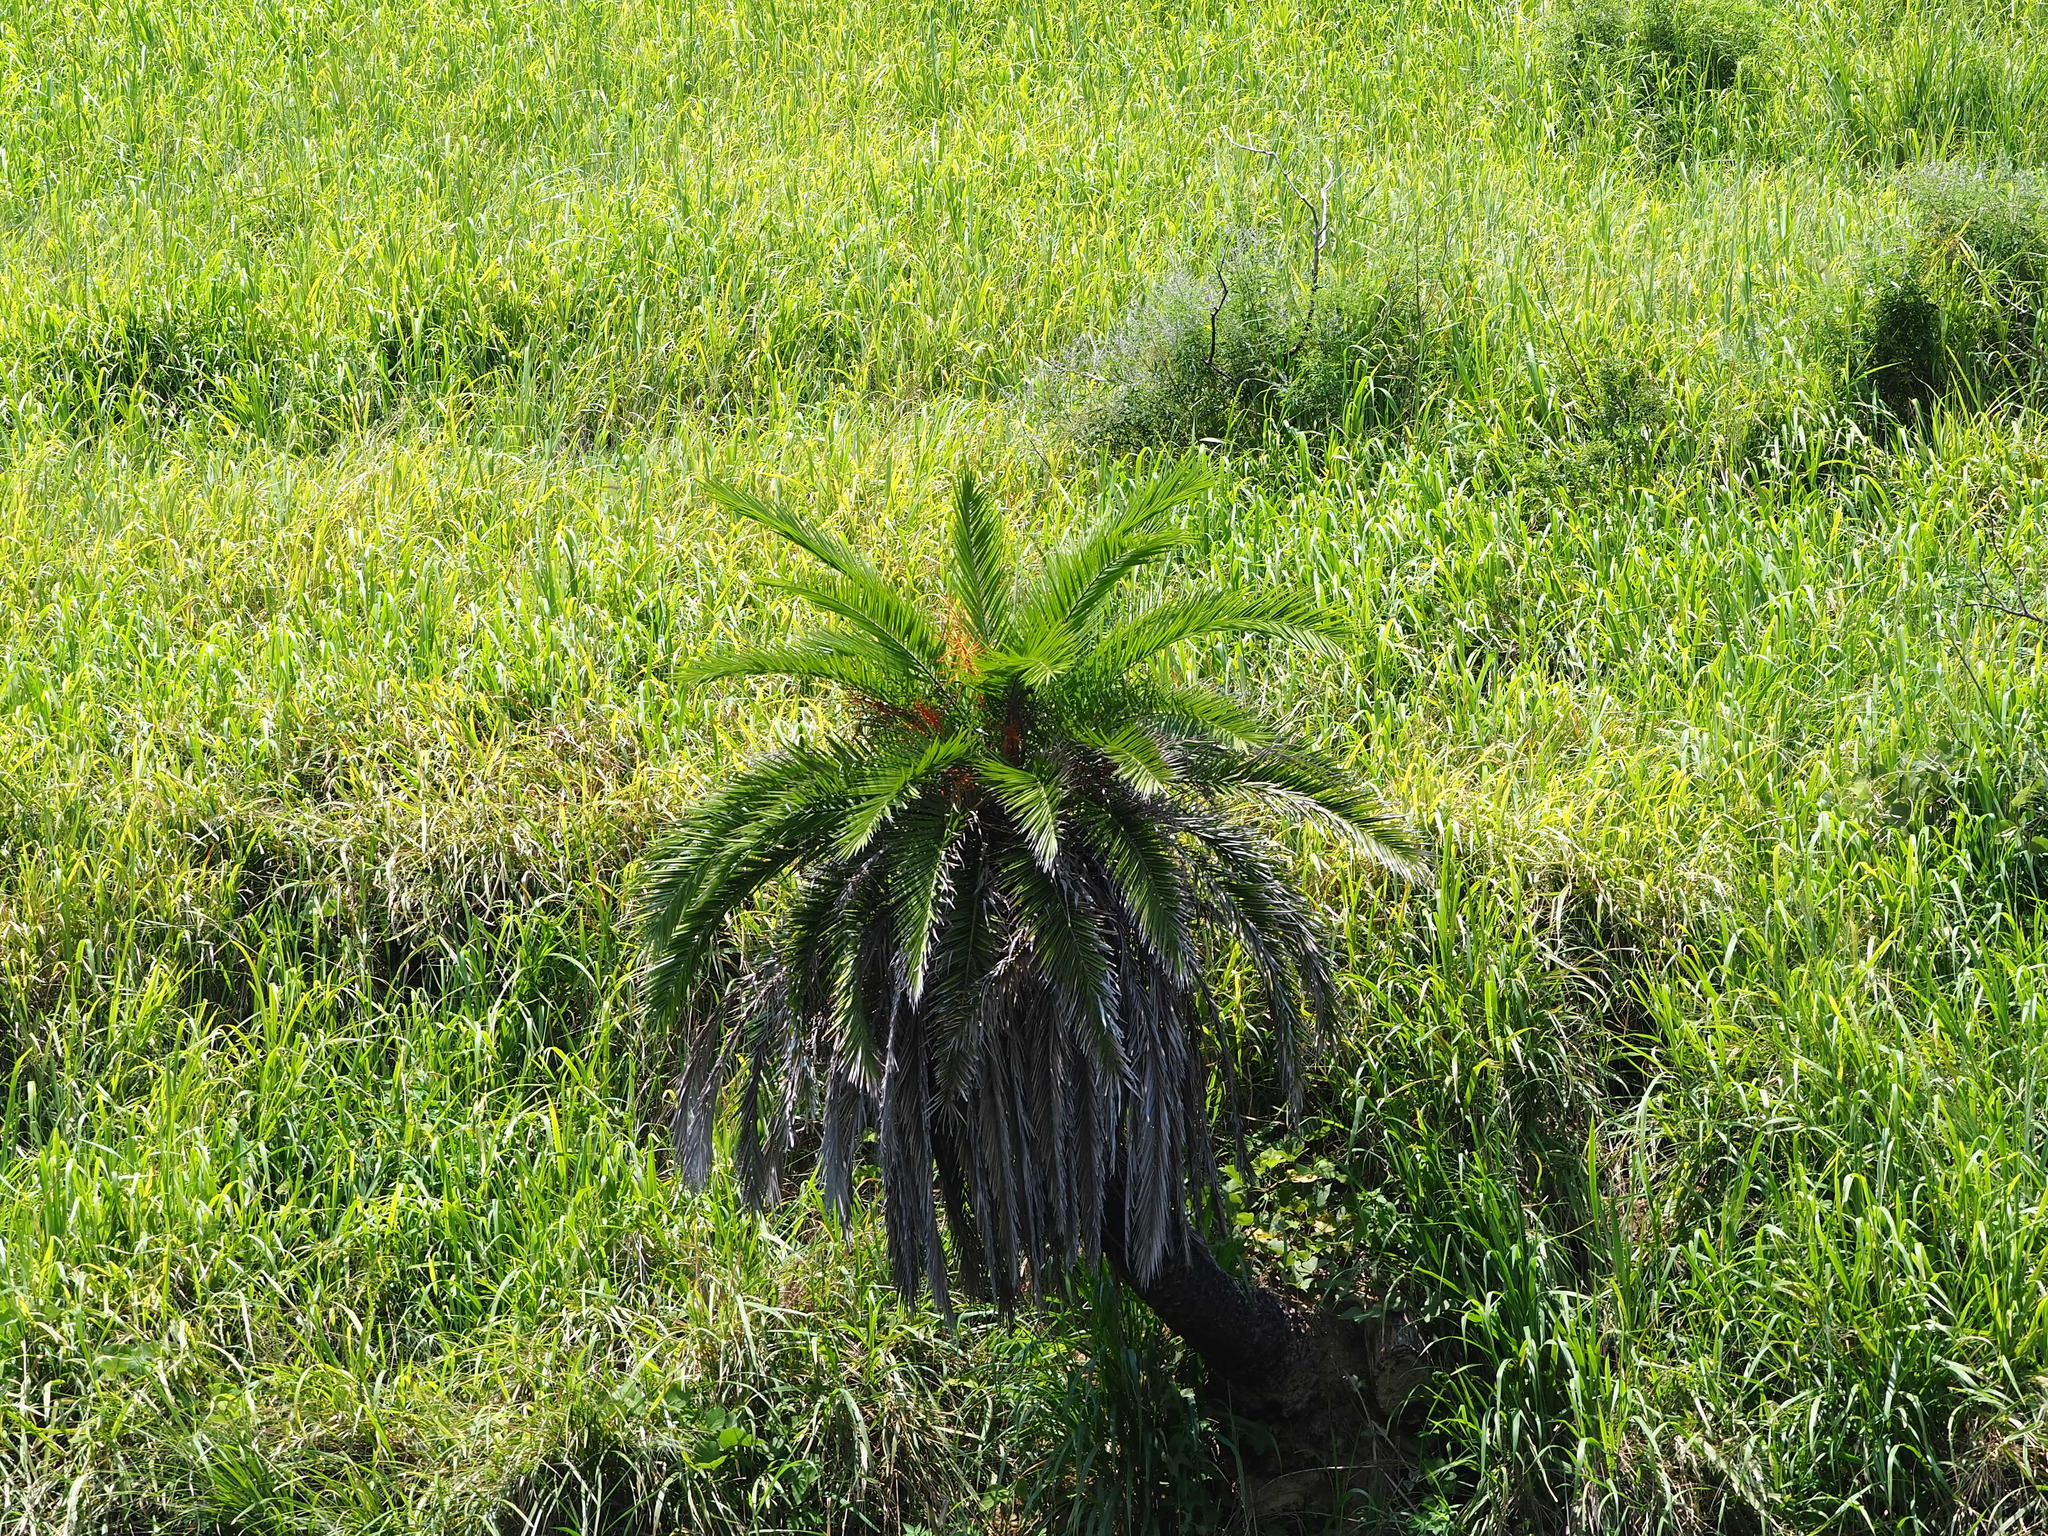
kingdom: Plantae
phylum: Tracheophyta
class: Liliopsida
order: Arecales
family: Arecaceae
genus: Phoenix
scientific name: Phoenix loureiroi
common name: Loureiro's palm
